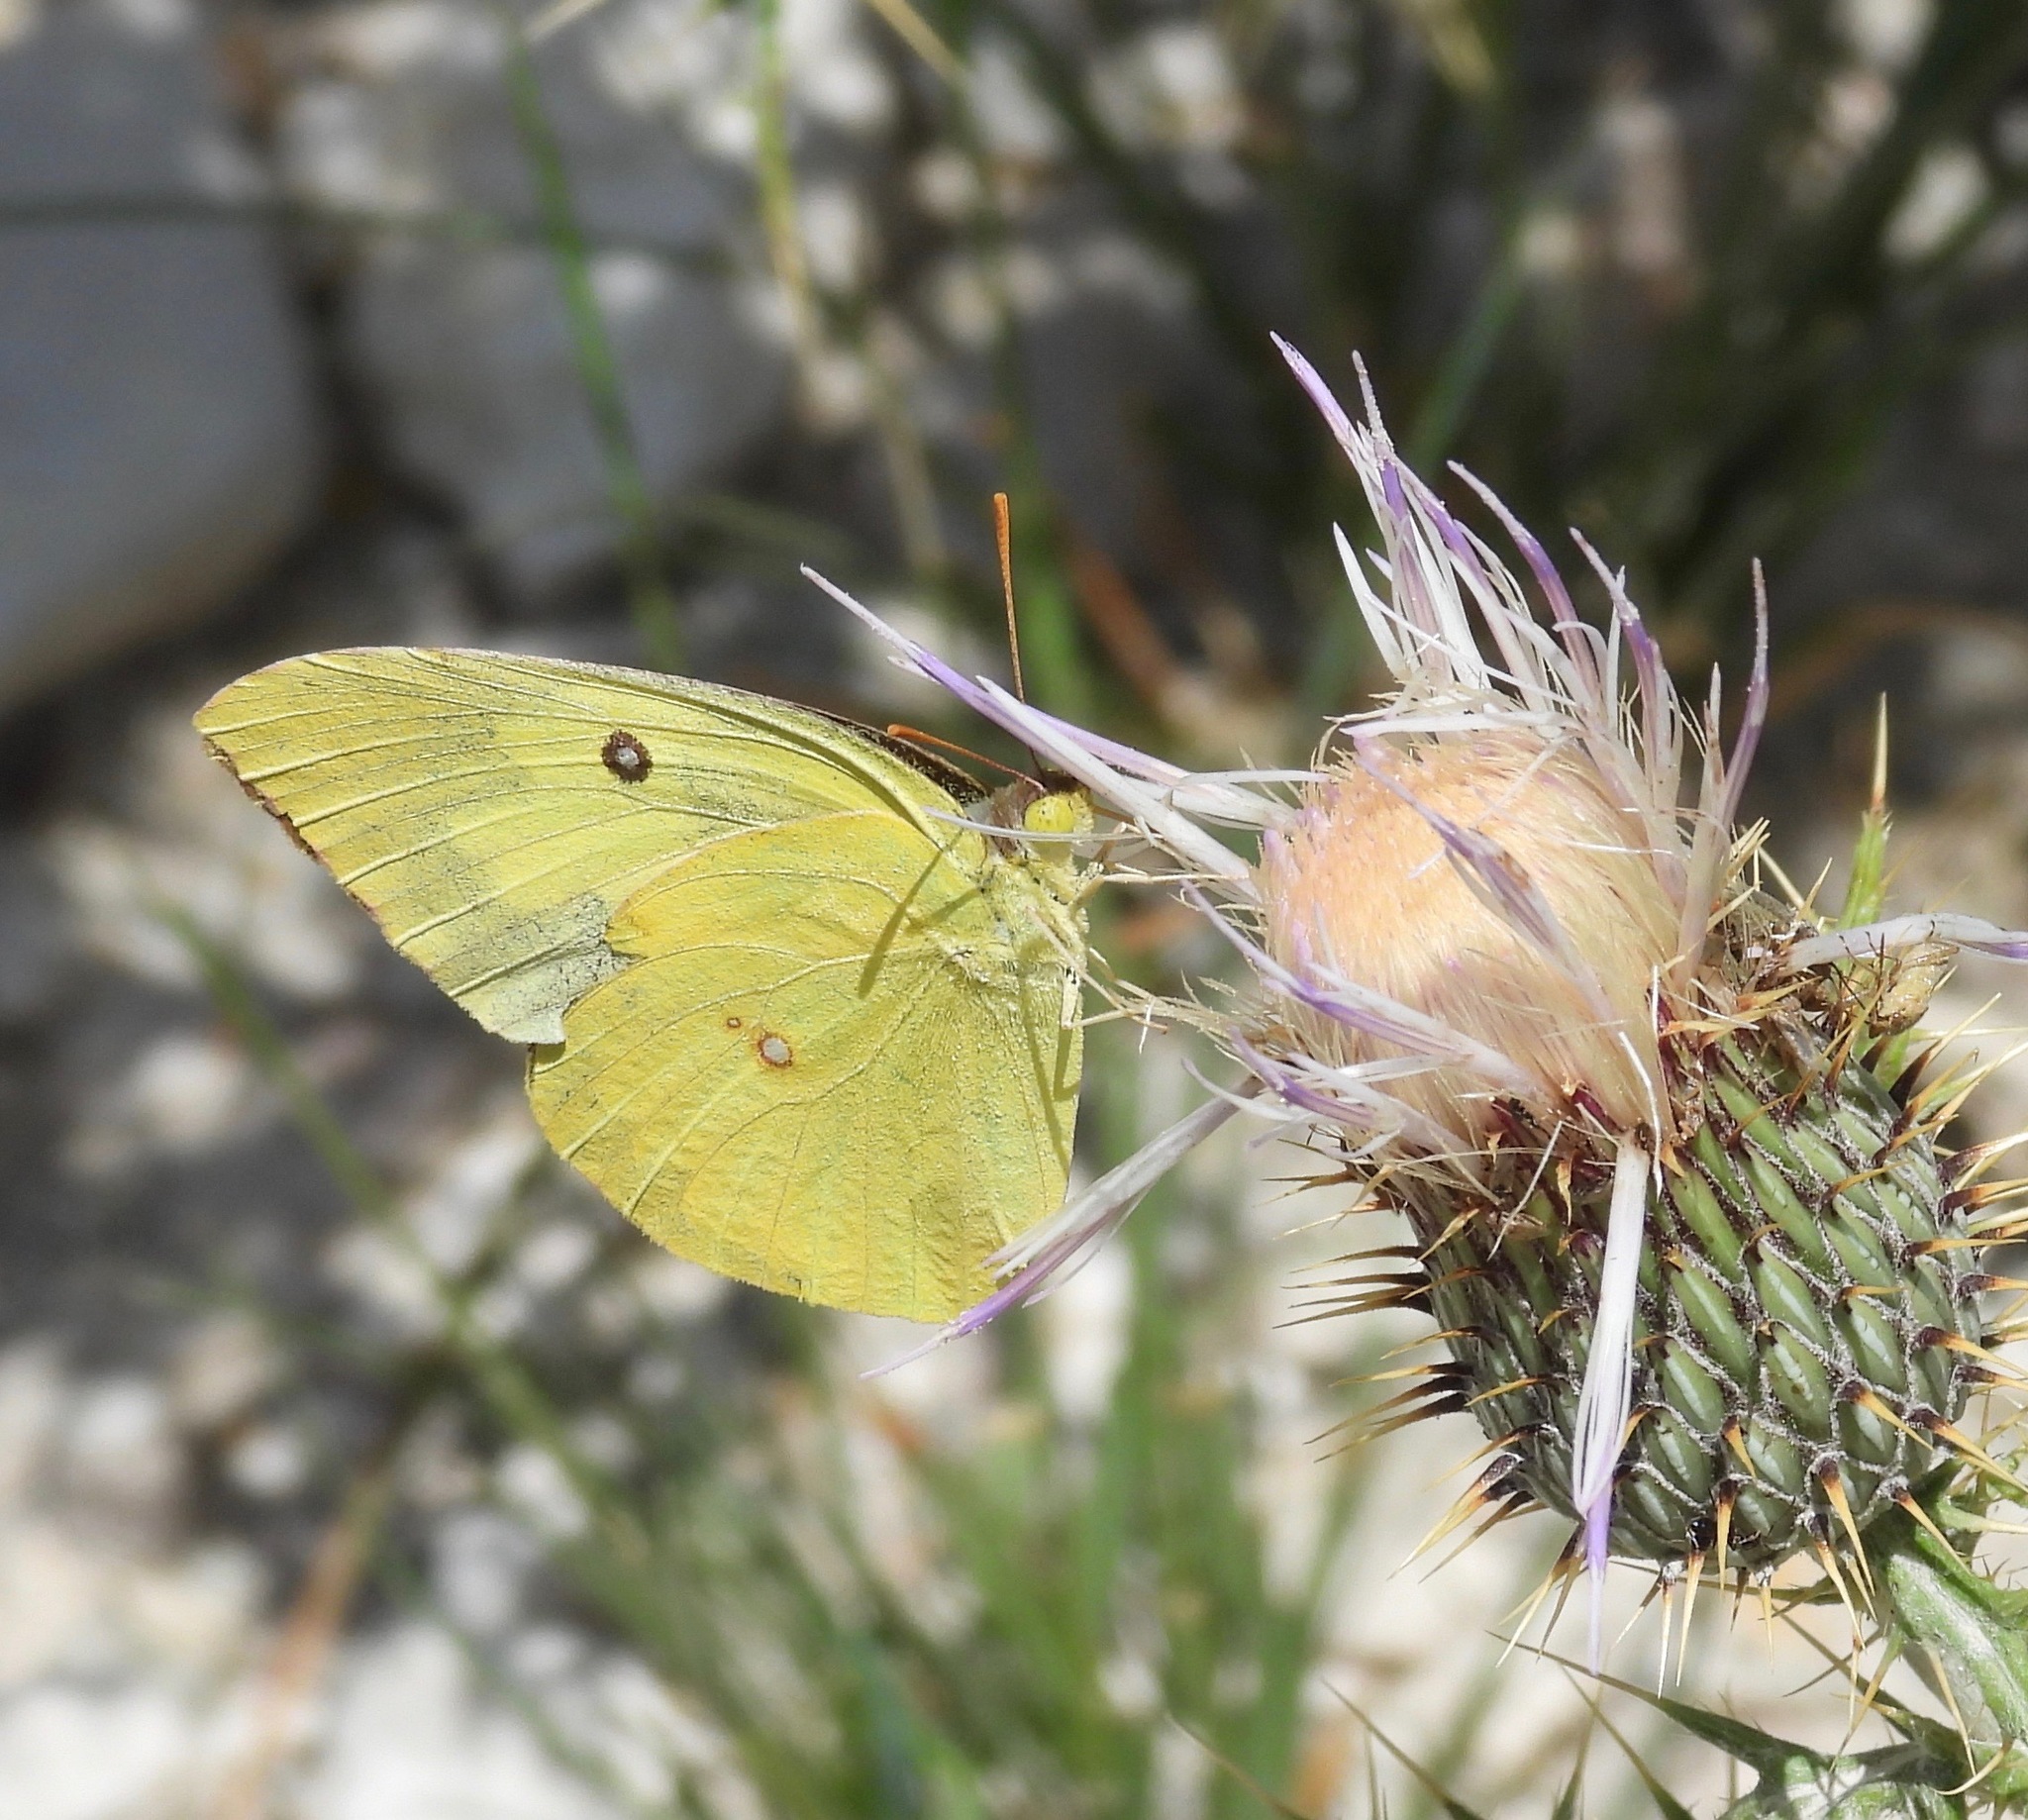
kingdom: Animalia
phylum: Arthropoda
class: Insecta
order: Lepidoptera
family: Pieridae
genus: Zerene
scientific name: Zerene cesonia
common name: Southern dogface
